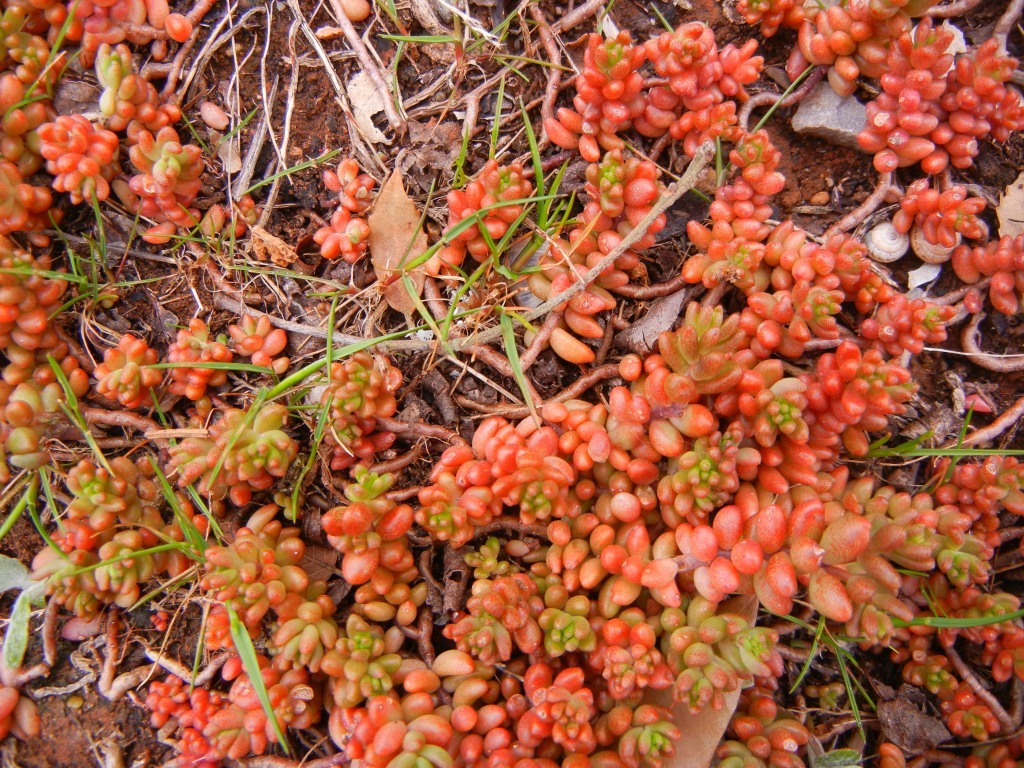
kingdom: Plantae
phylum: Tracheophyta
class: Magnoliopsida
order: Saxifragales
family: Crassulaceae
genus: Sedum
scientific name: Sedum album
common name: White stonecrop
